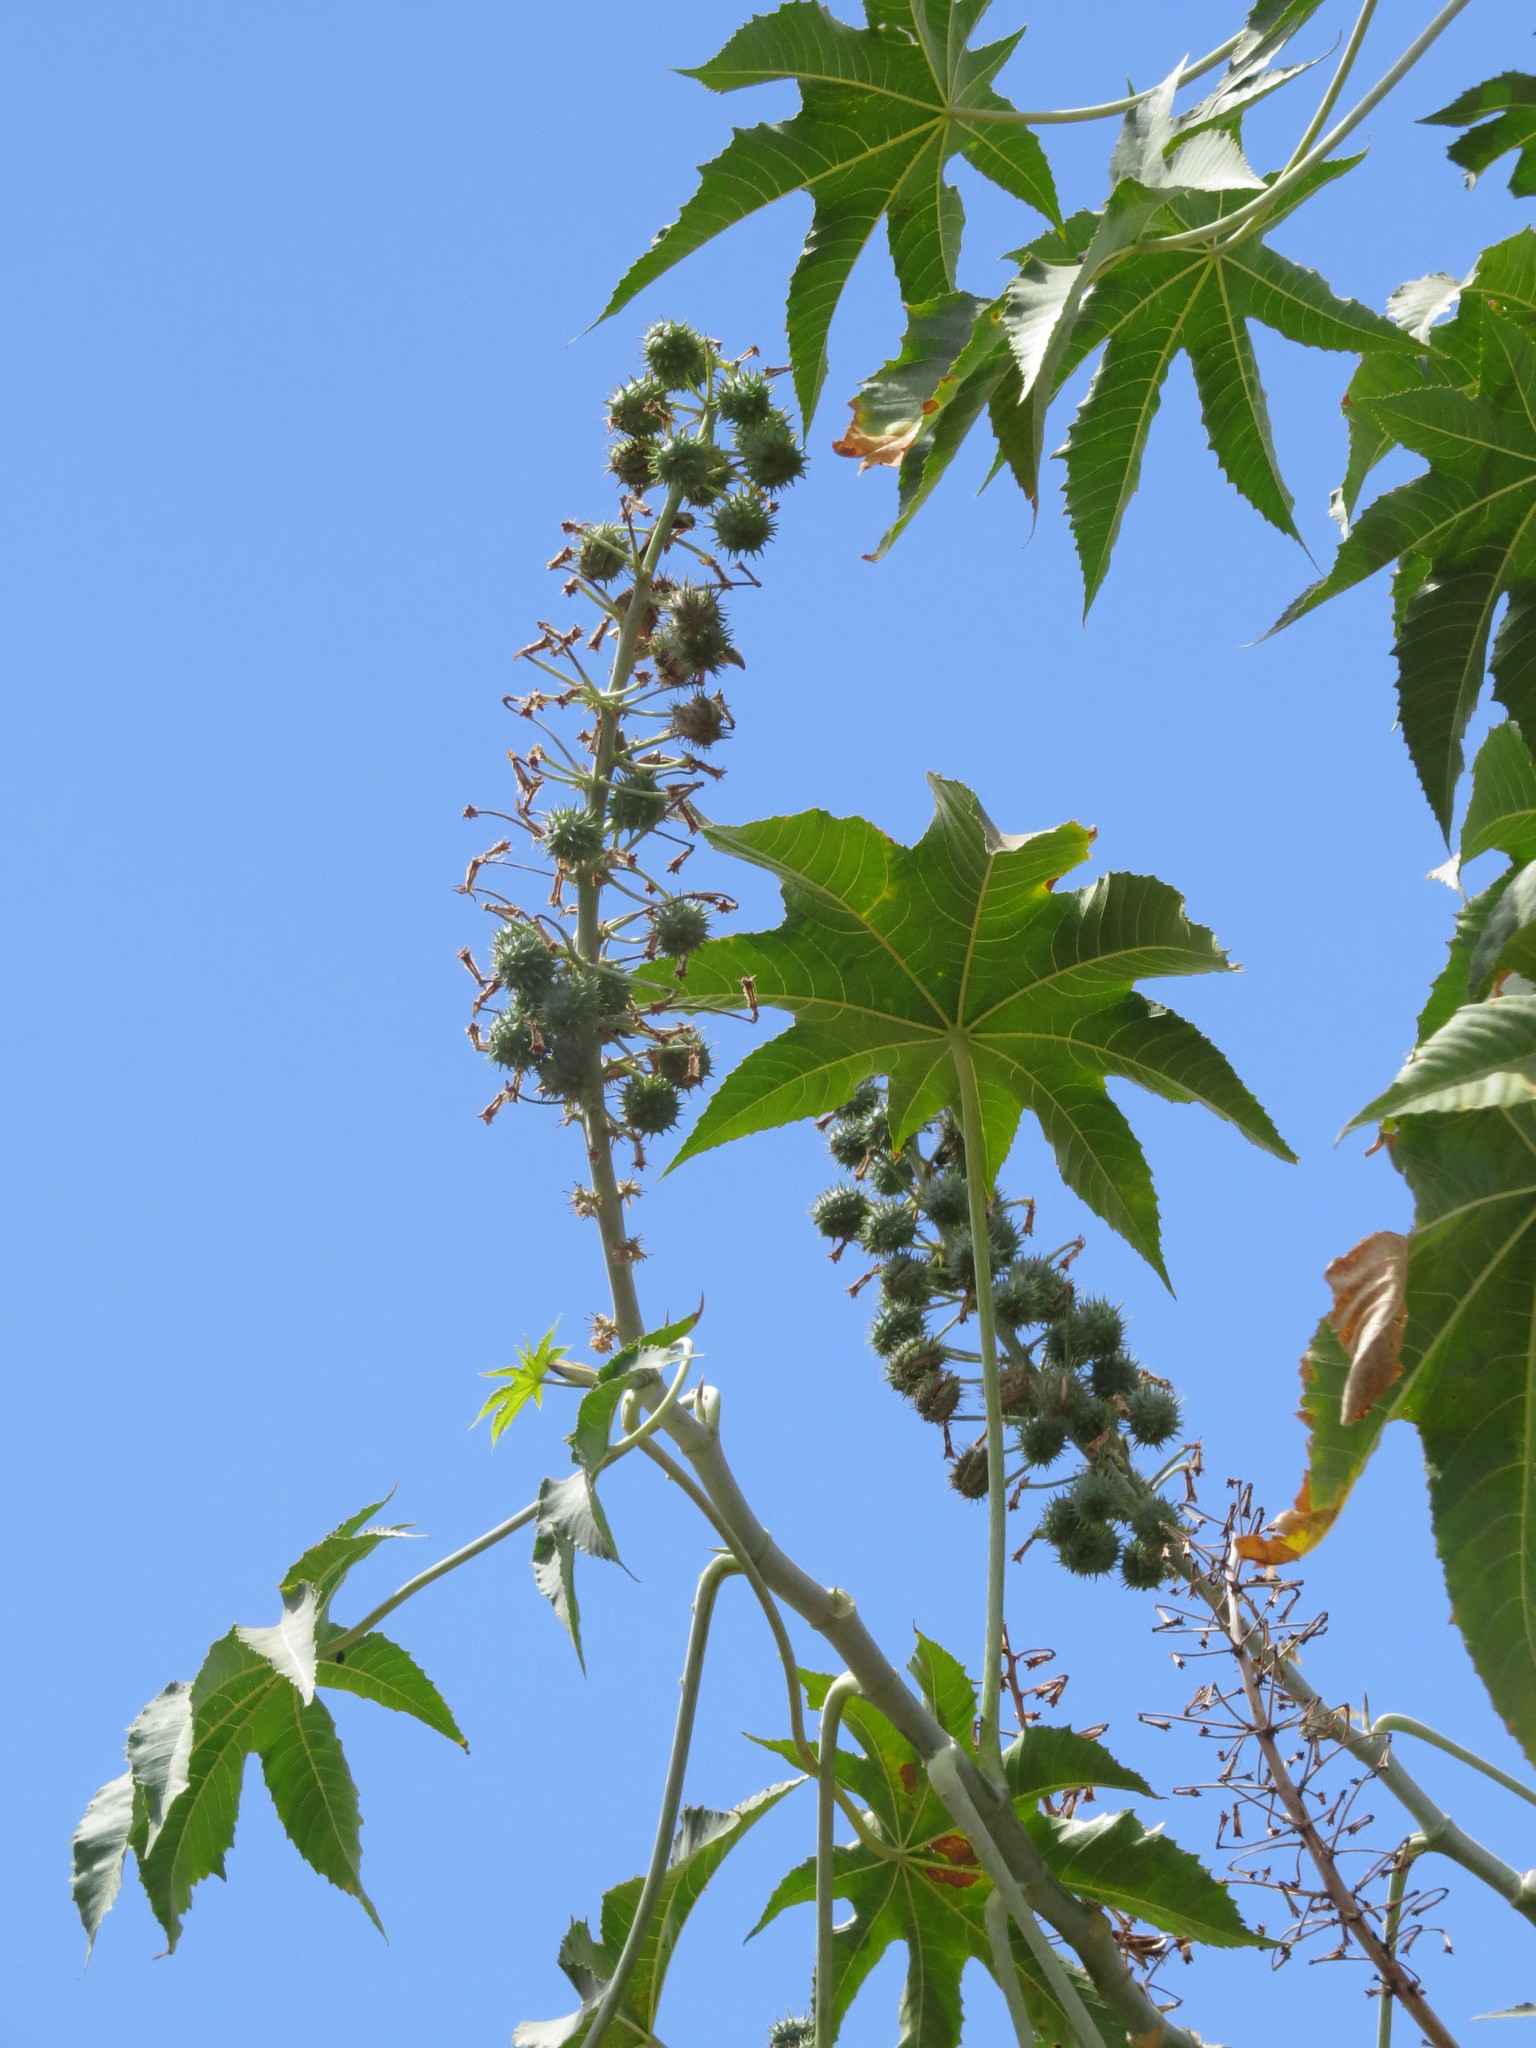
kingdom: Plantae
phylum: Tracheophyta
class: Magnoliopsida
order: Malpighiales
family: Euphorbiaceae
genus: Ricinus
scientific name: Ricinus communis
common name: Castor-oil-plant
